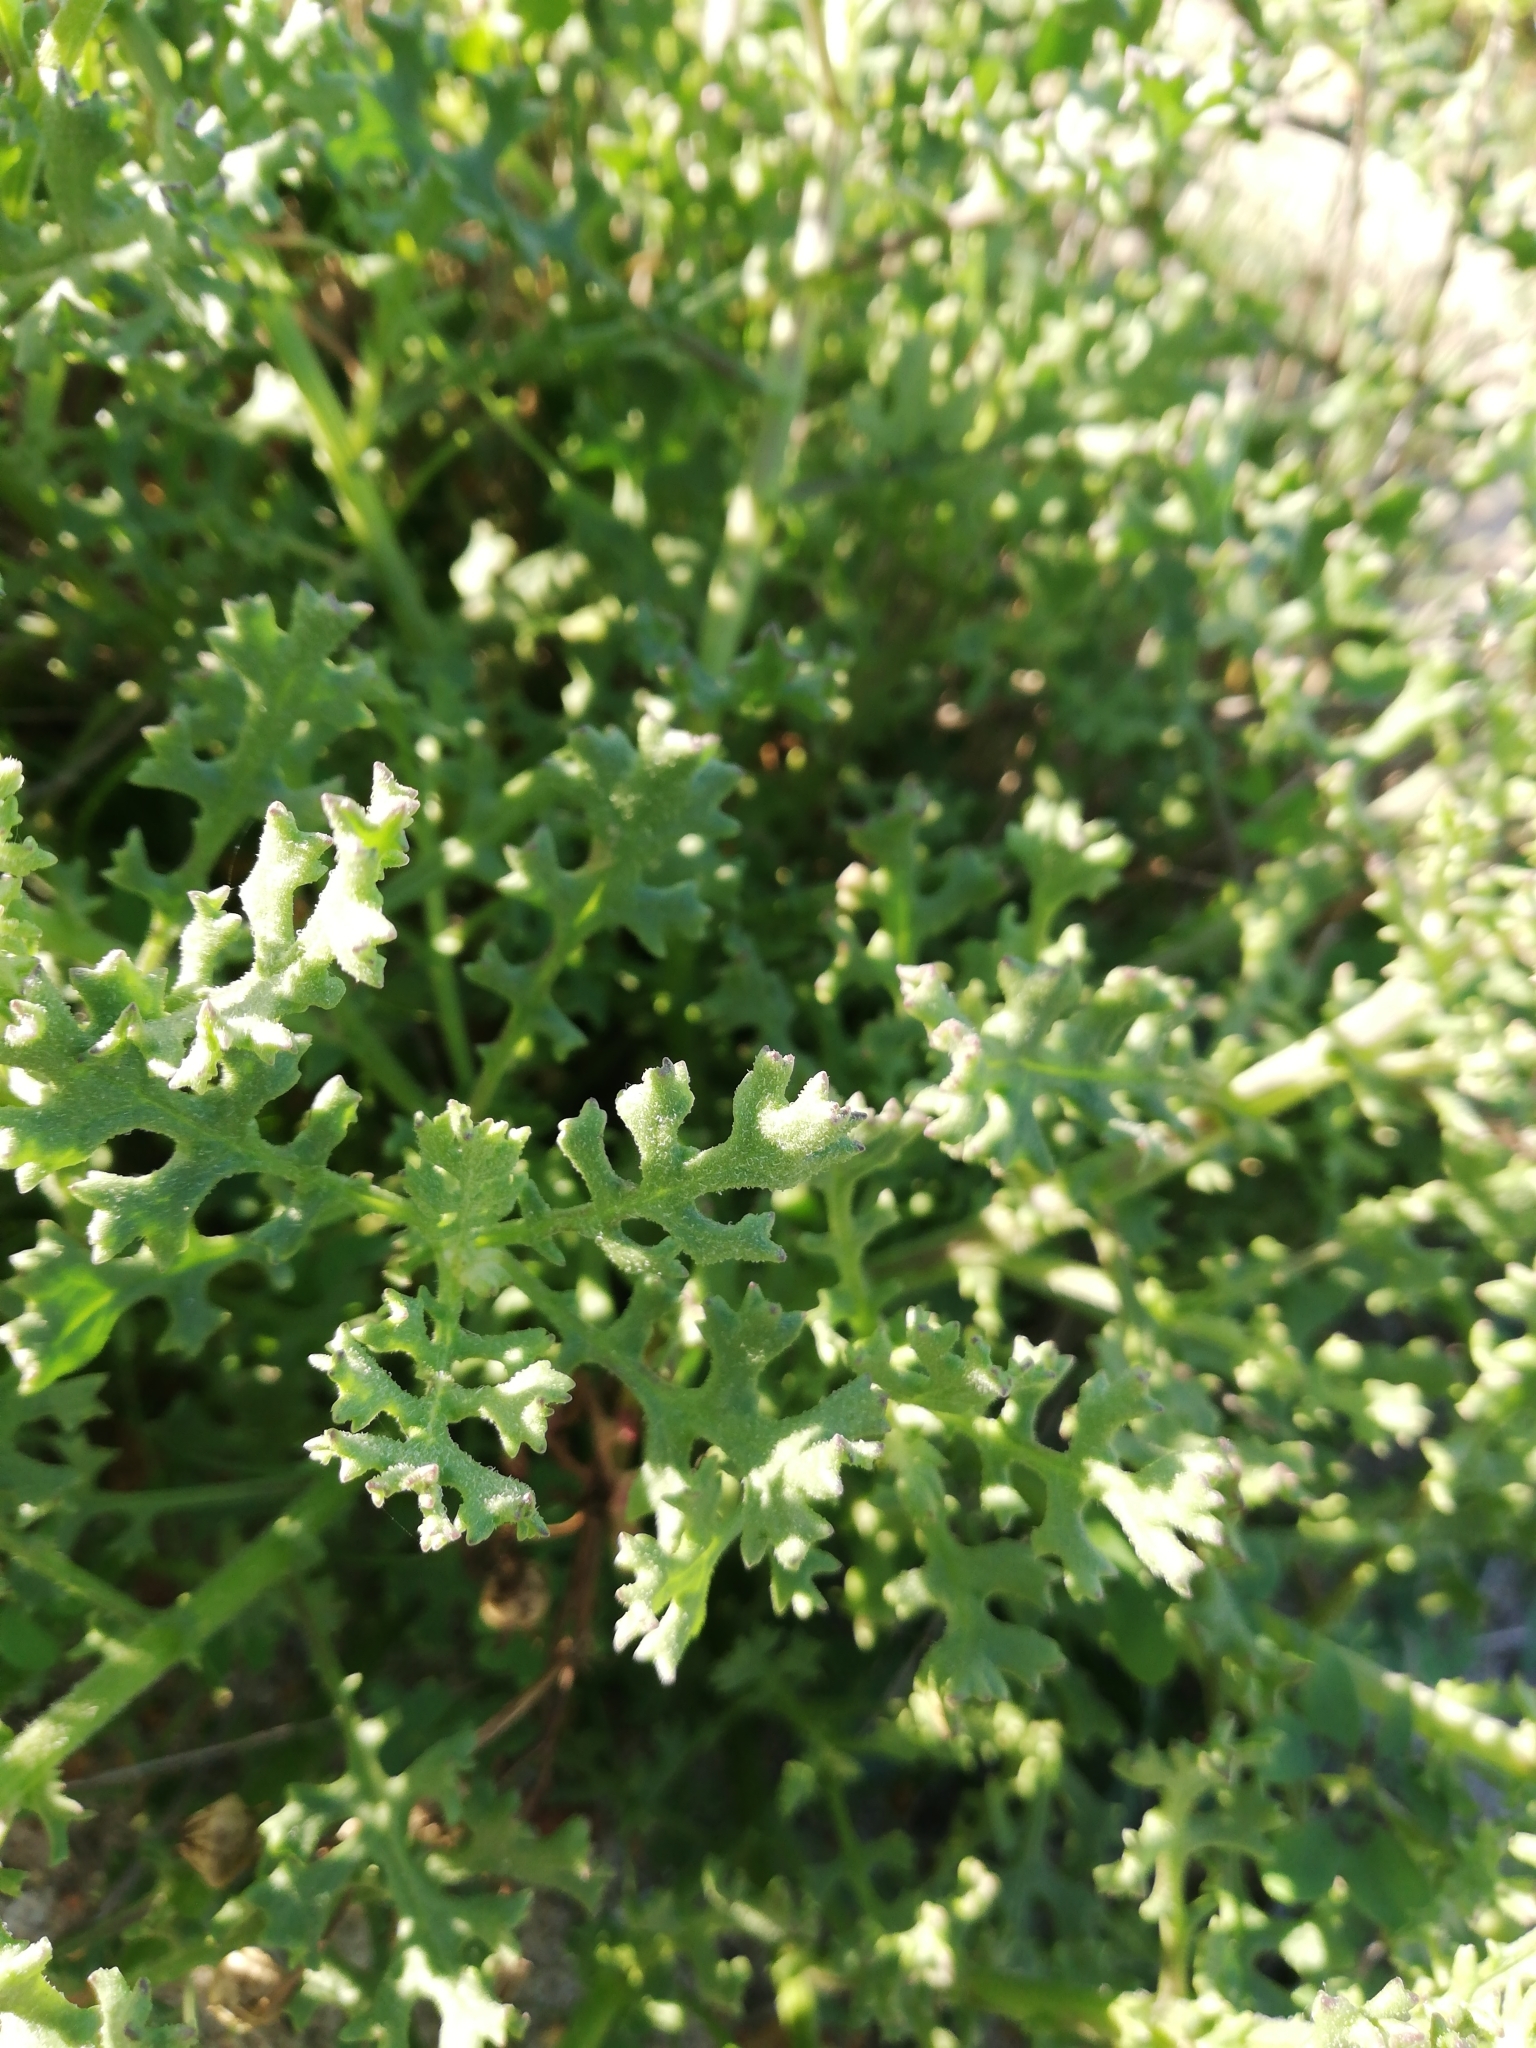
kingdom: Plantae
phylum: Tracheophyta
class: Magnoliopsida
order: Asterales
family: Asteraceae
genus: Senecio
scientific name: Senecio elegans
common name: Purple groundsel
